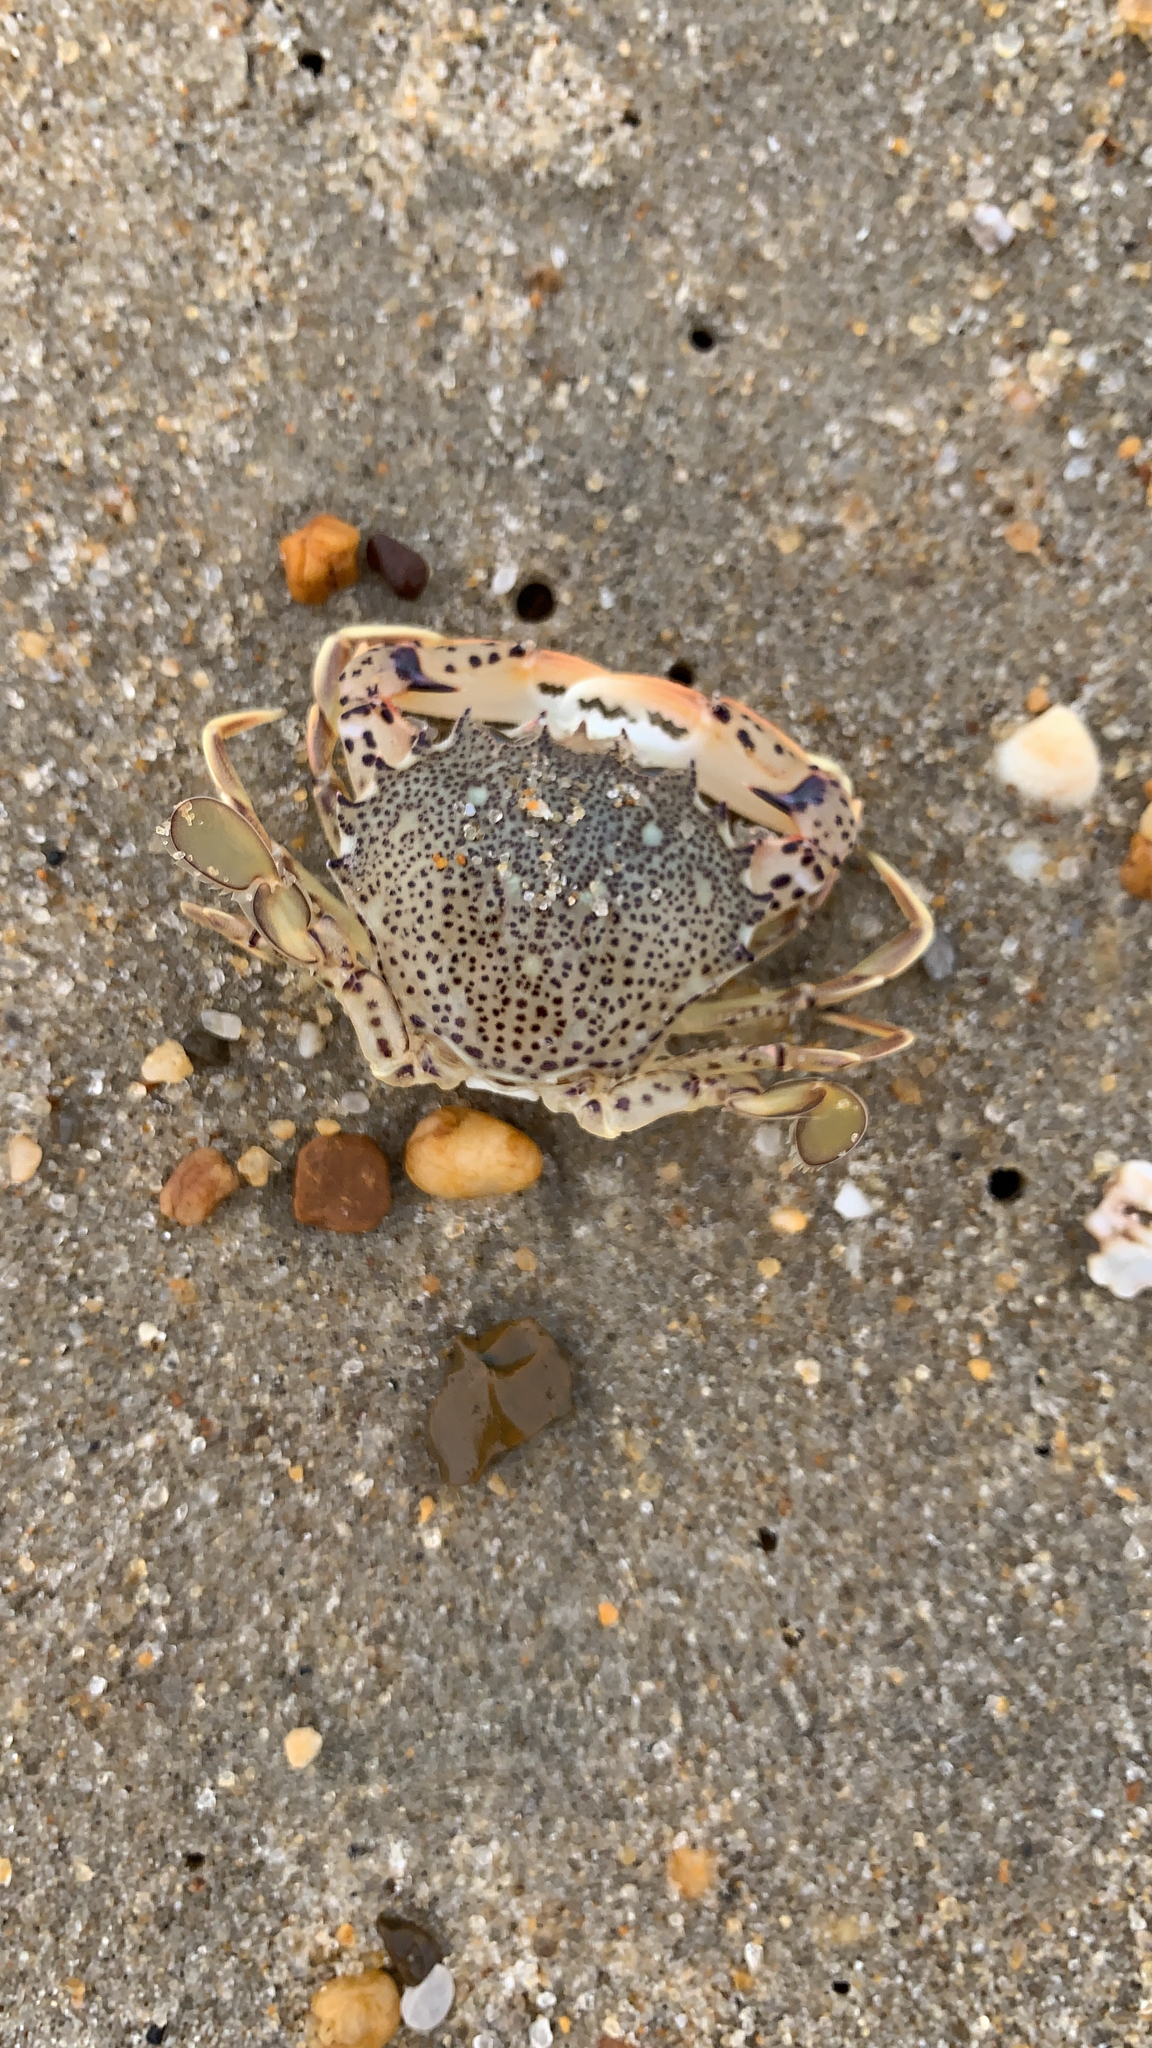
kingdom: Animalia
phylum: Arthropoda
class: Malacostraca
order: Decapoda
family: Ovalipidae
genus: Ovalipes
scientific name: Ovalipes ocellatus
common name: Lady crab
